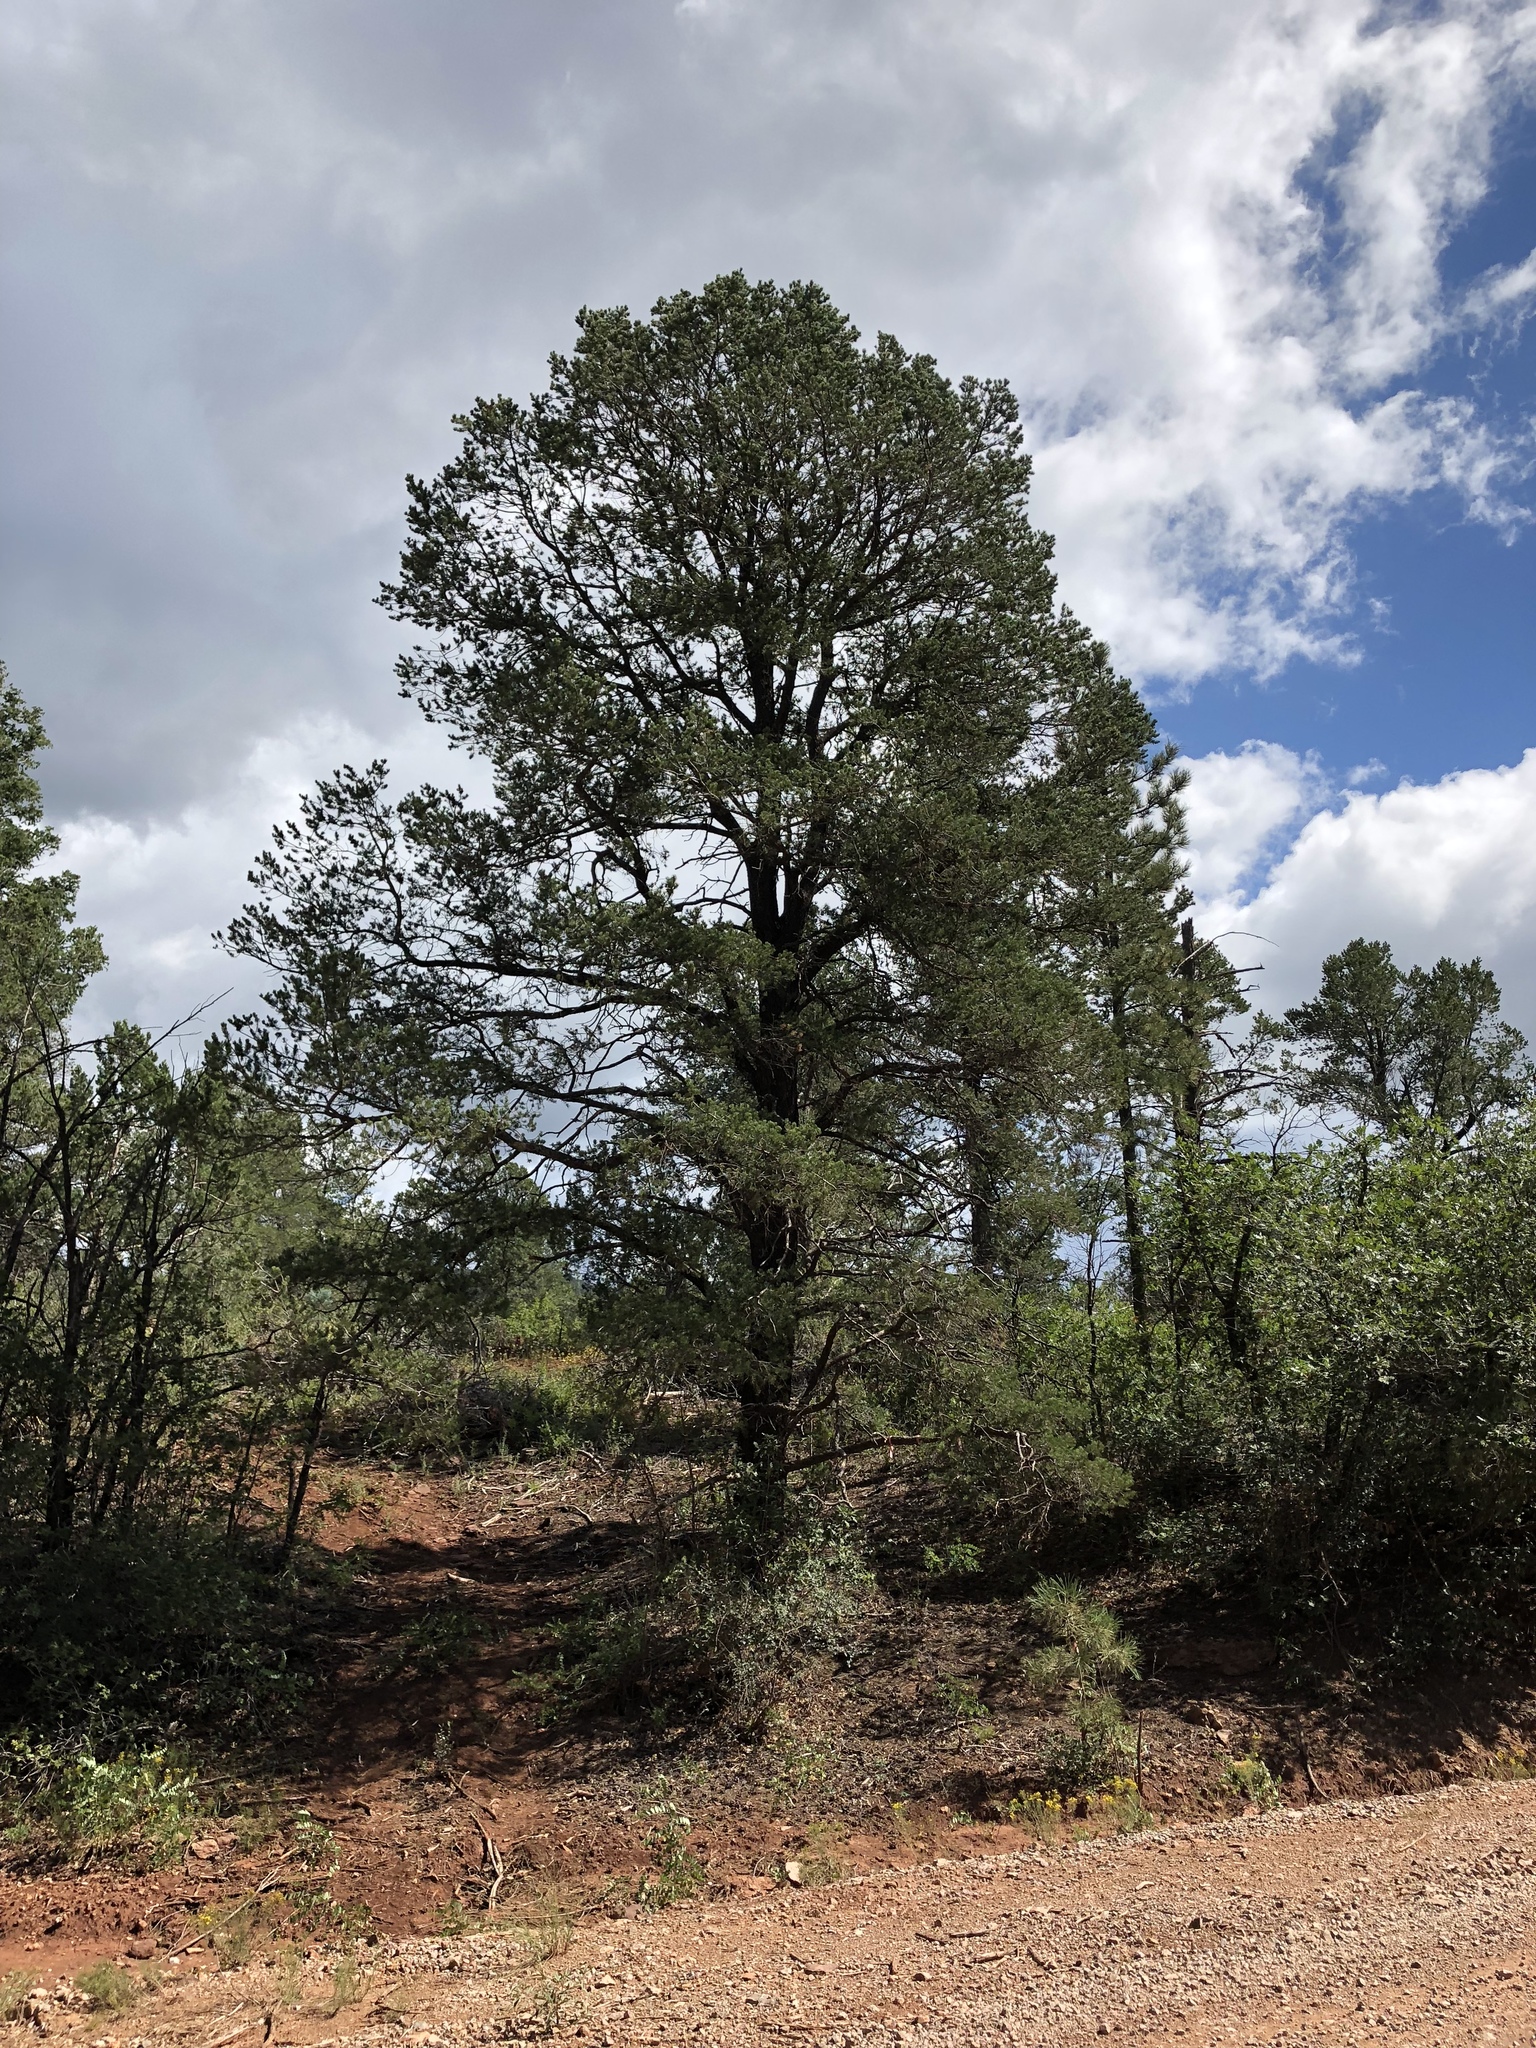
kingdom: Plantae
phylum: Tracheophyta
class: Pinopsida
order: Pinales
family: Pinaceae
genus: Pinus
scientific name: Pinus edulis
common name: Colorado pinyon
